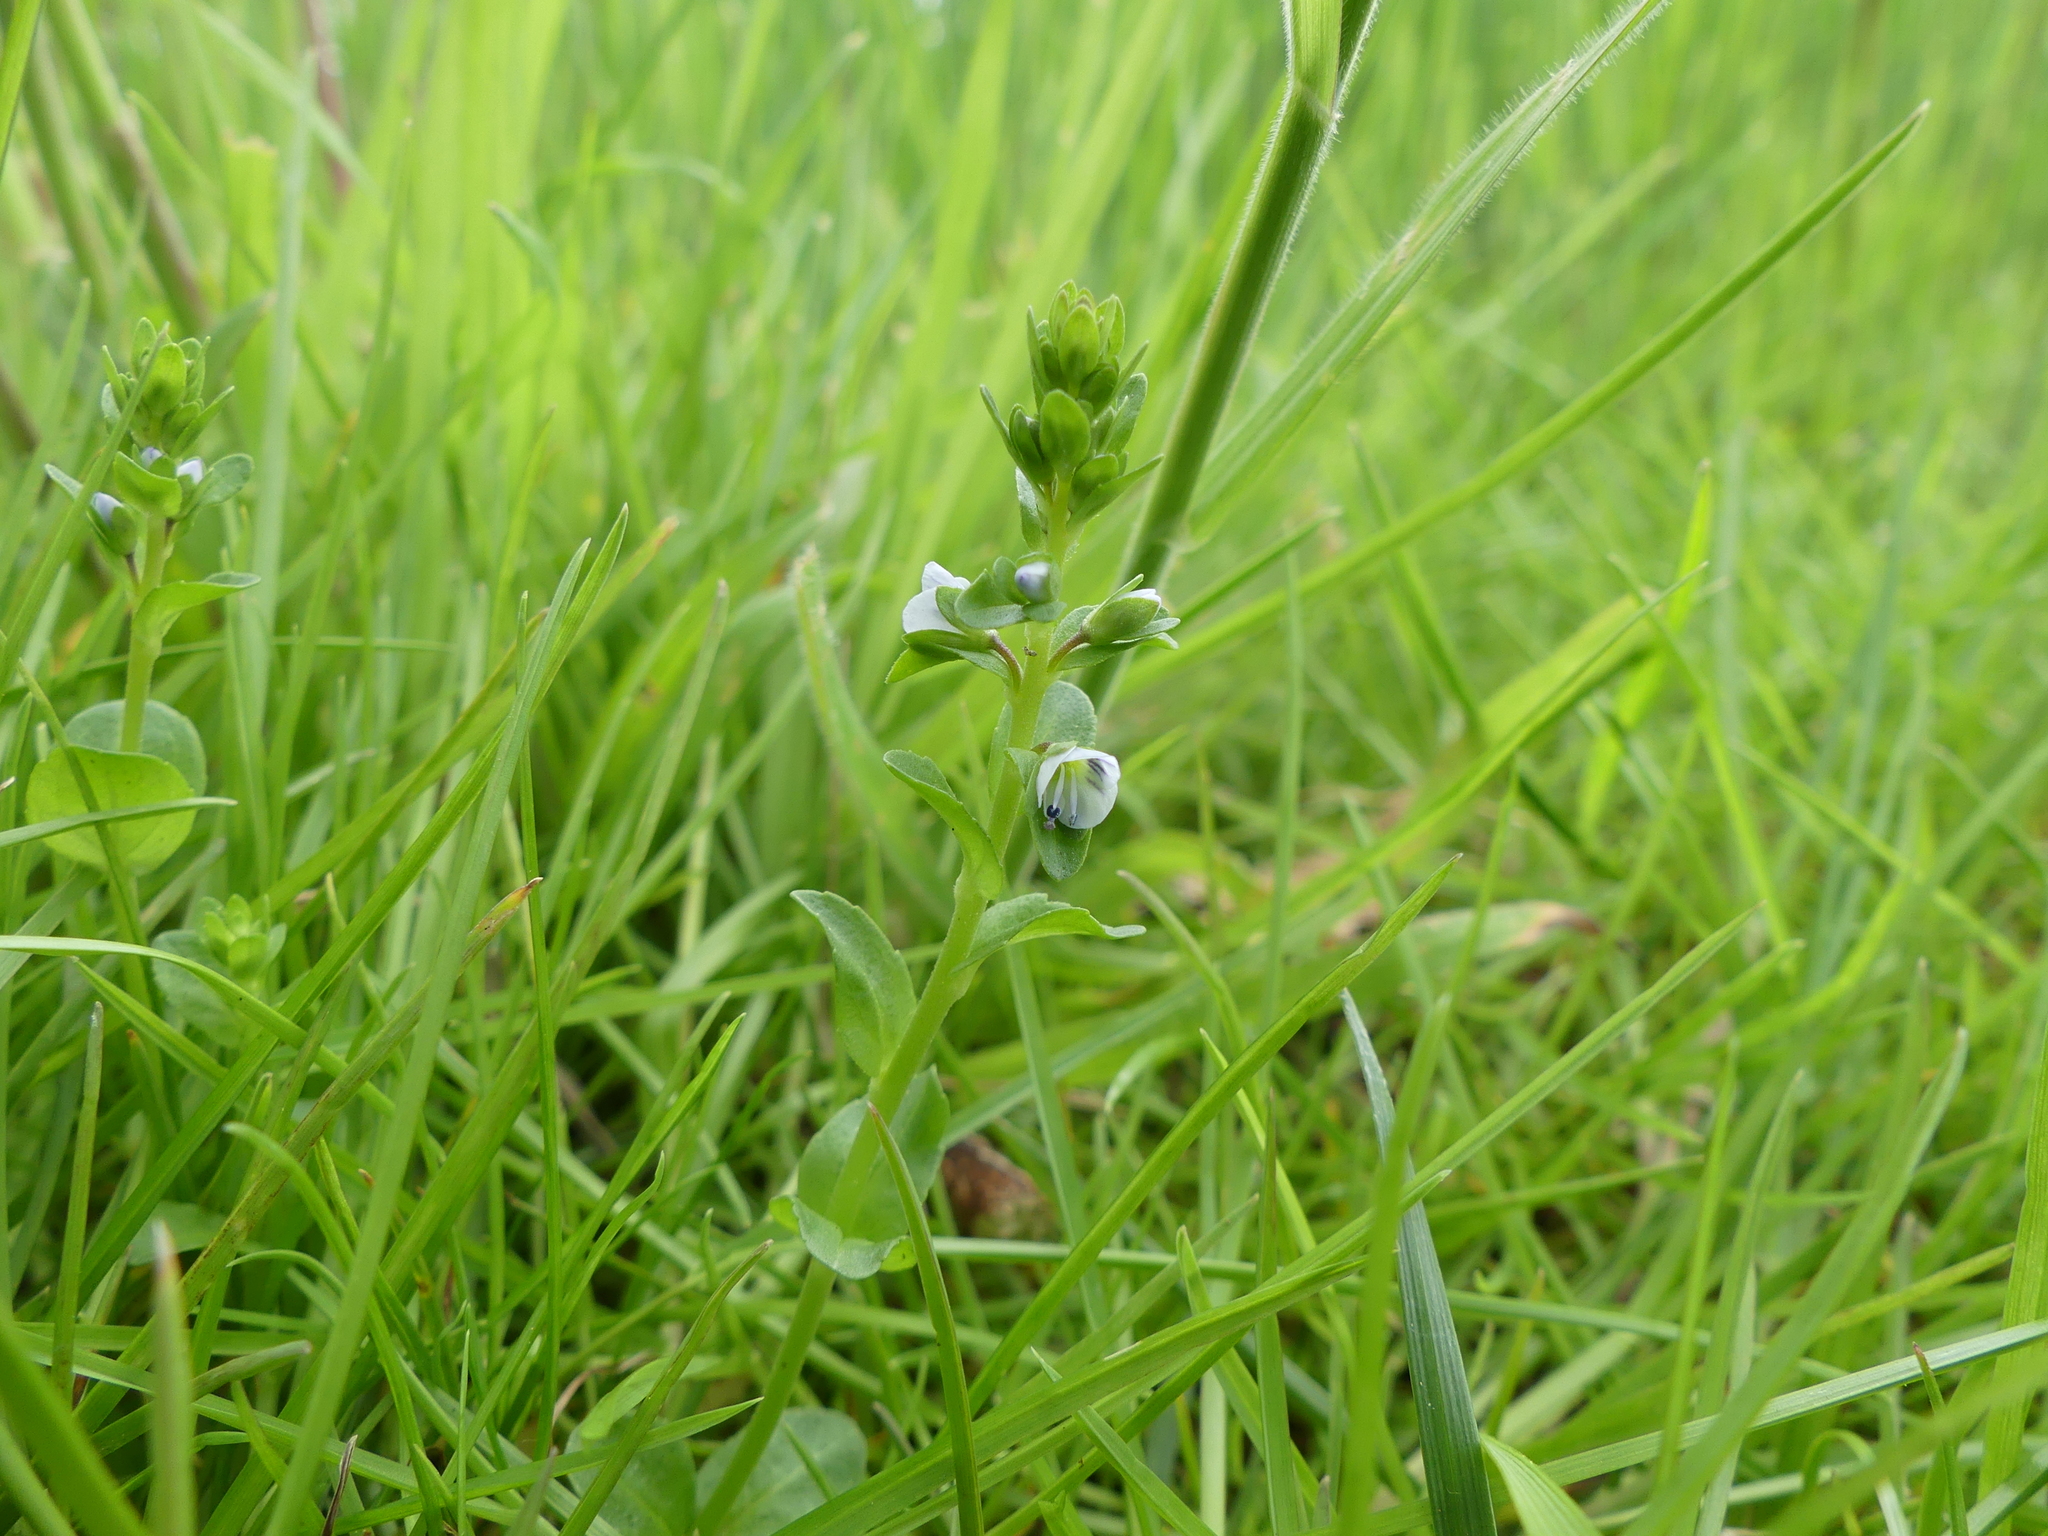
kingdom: Plantae
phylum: Tracheophyta
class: Magnoliopsida
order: Lamiales
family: Plantaginaceae
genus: Veronica
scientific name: Veronica serpyllifolia
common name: Thyme-leaved speedwell
